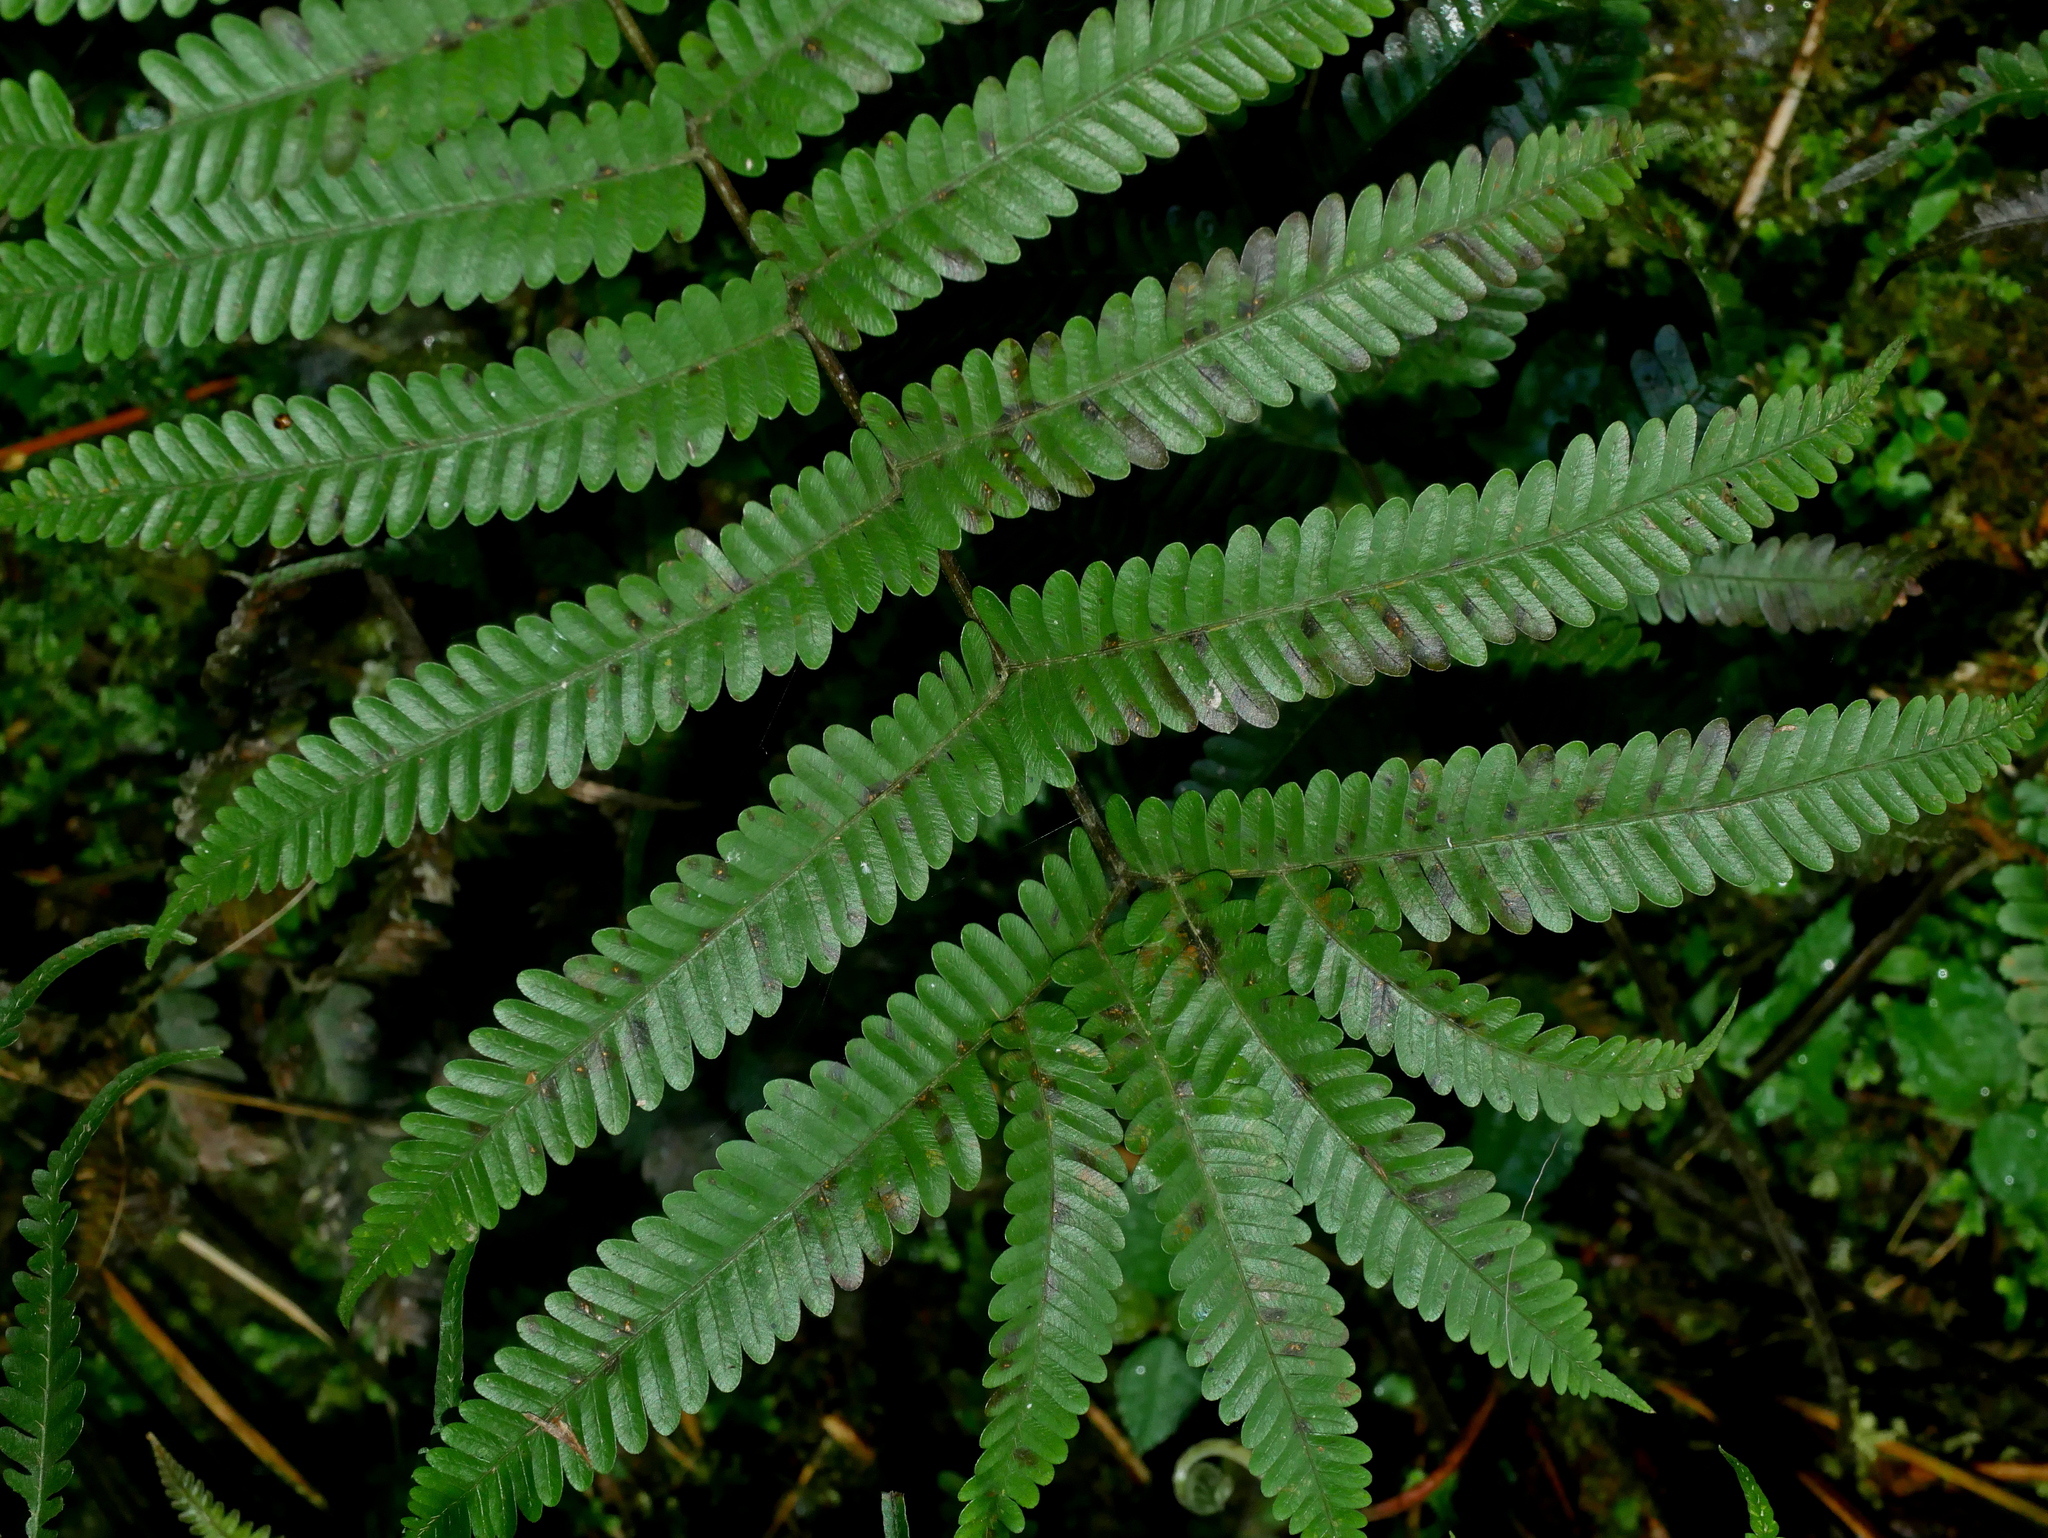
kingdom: Plantae
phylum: Tracheophyta
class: Polypodiopsida
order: Polypodiales
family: Pteridaceae
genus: Pteris
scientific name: Pteris setulosocostulata
